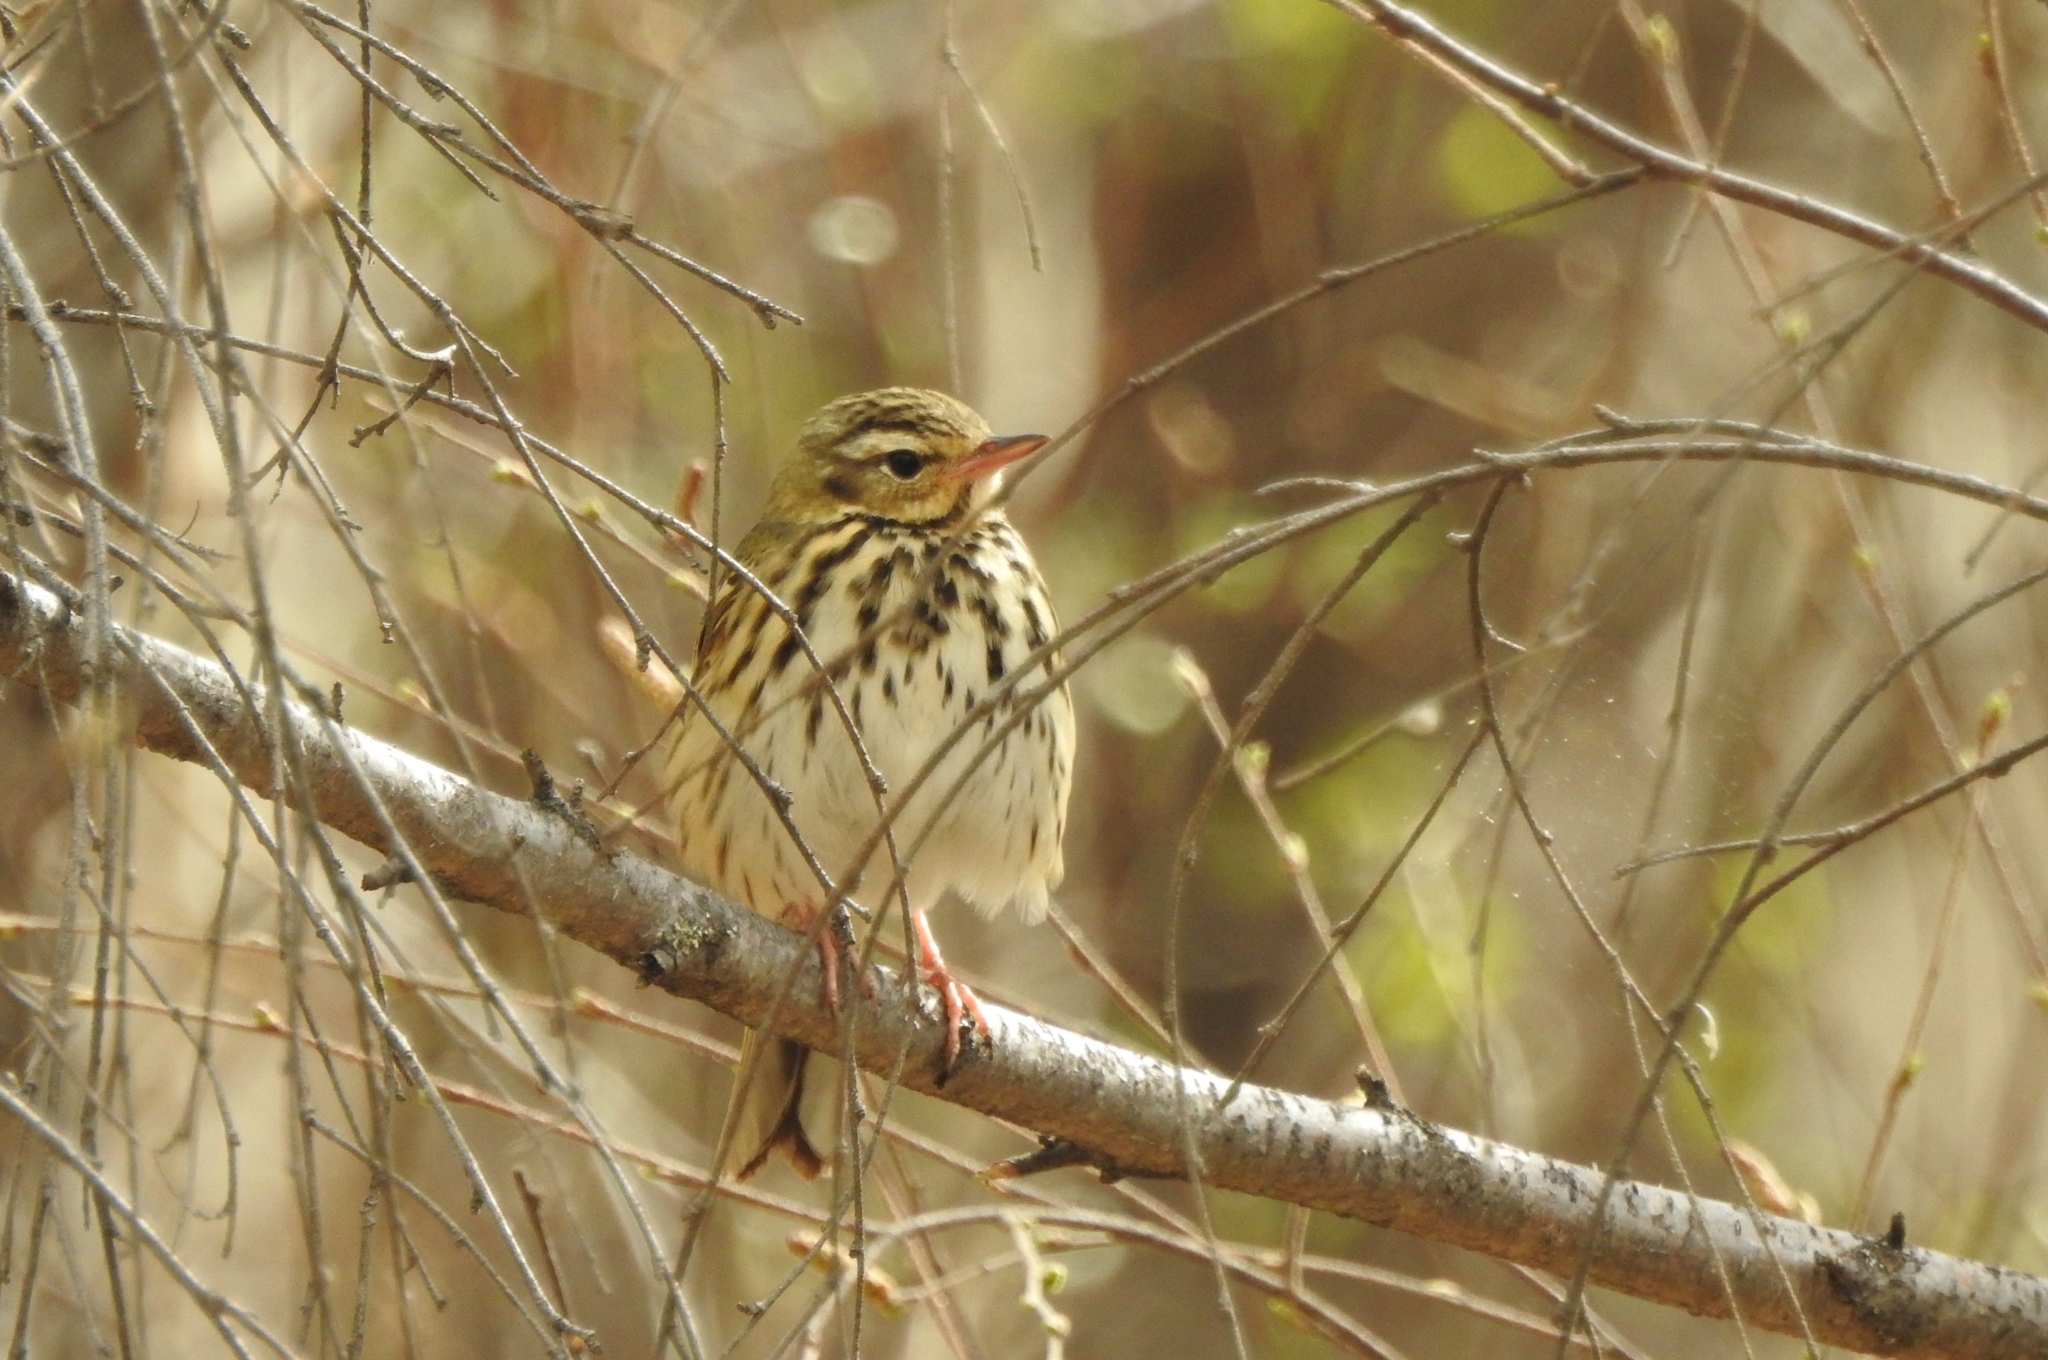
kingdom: Animalia
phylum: Chordata
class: Aves
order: Passeriformes
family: Motacillidae
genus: Anthus
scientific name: Anthus hodgsoni
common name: Olive-backed pipit
